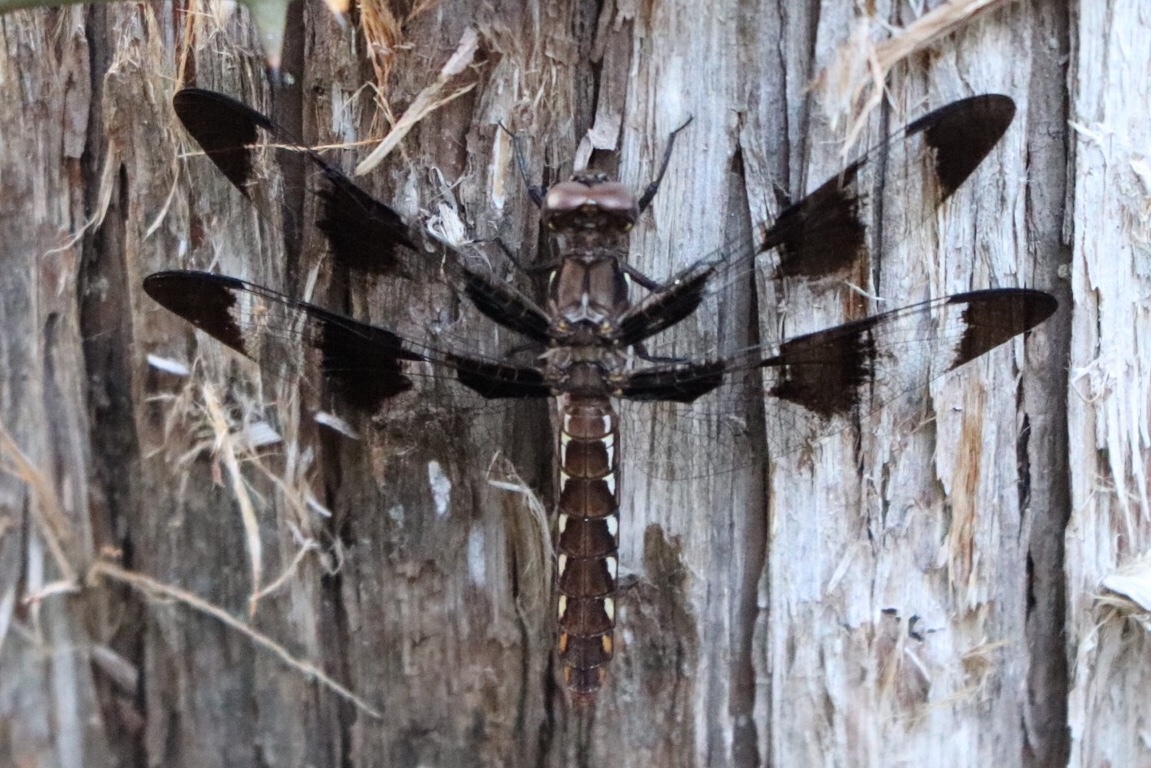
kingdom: Animalia
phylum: Arthropoda
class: Insecta
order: Odonata
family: Libellulidae
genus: Plathemis
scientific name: Plathemis lydia
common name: Common whitetail
